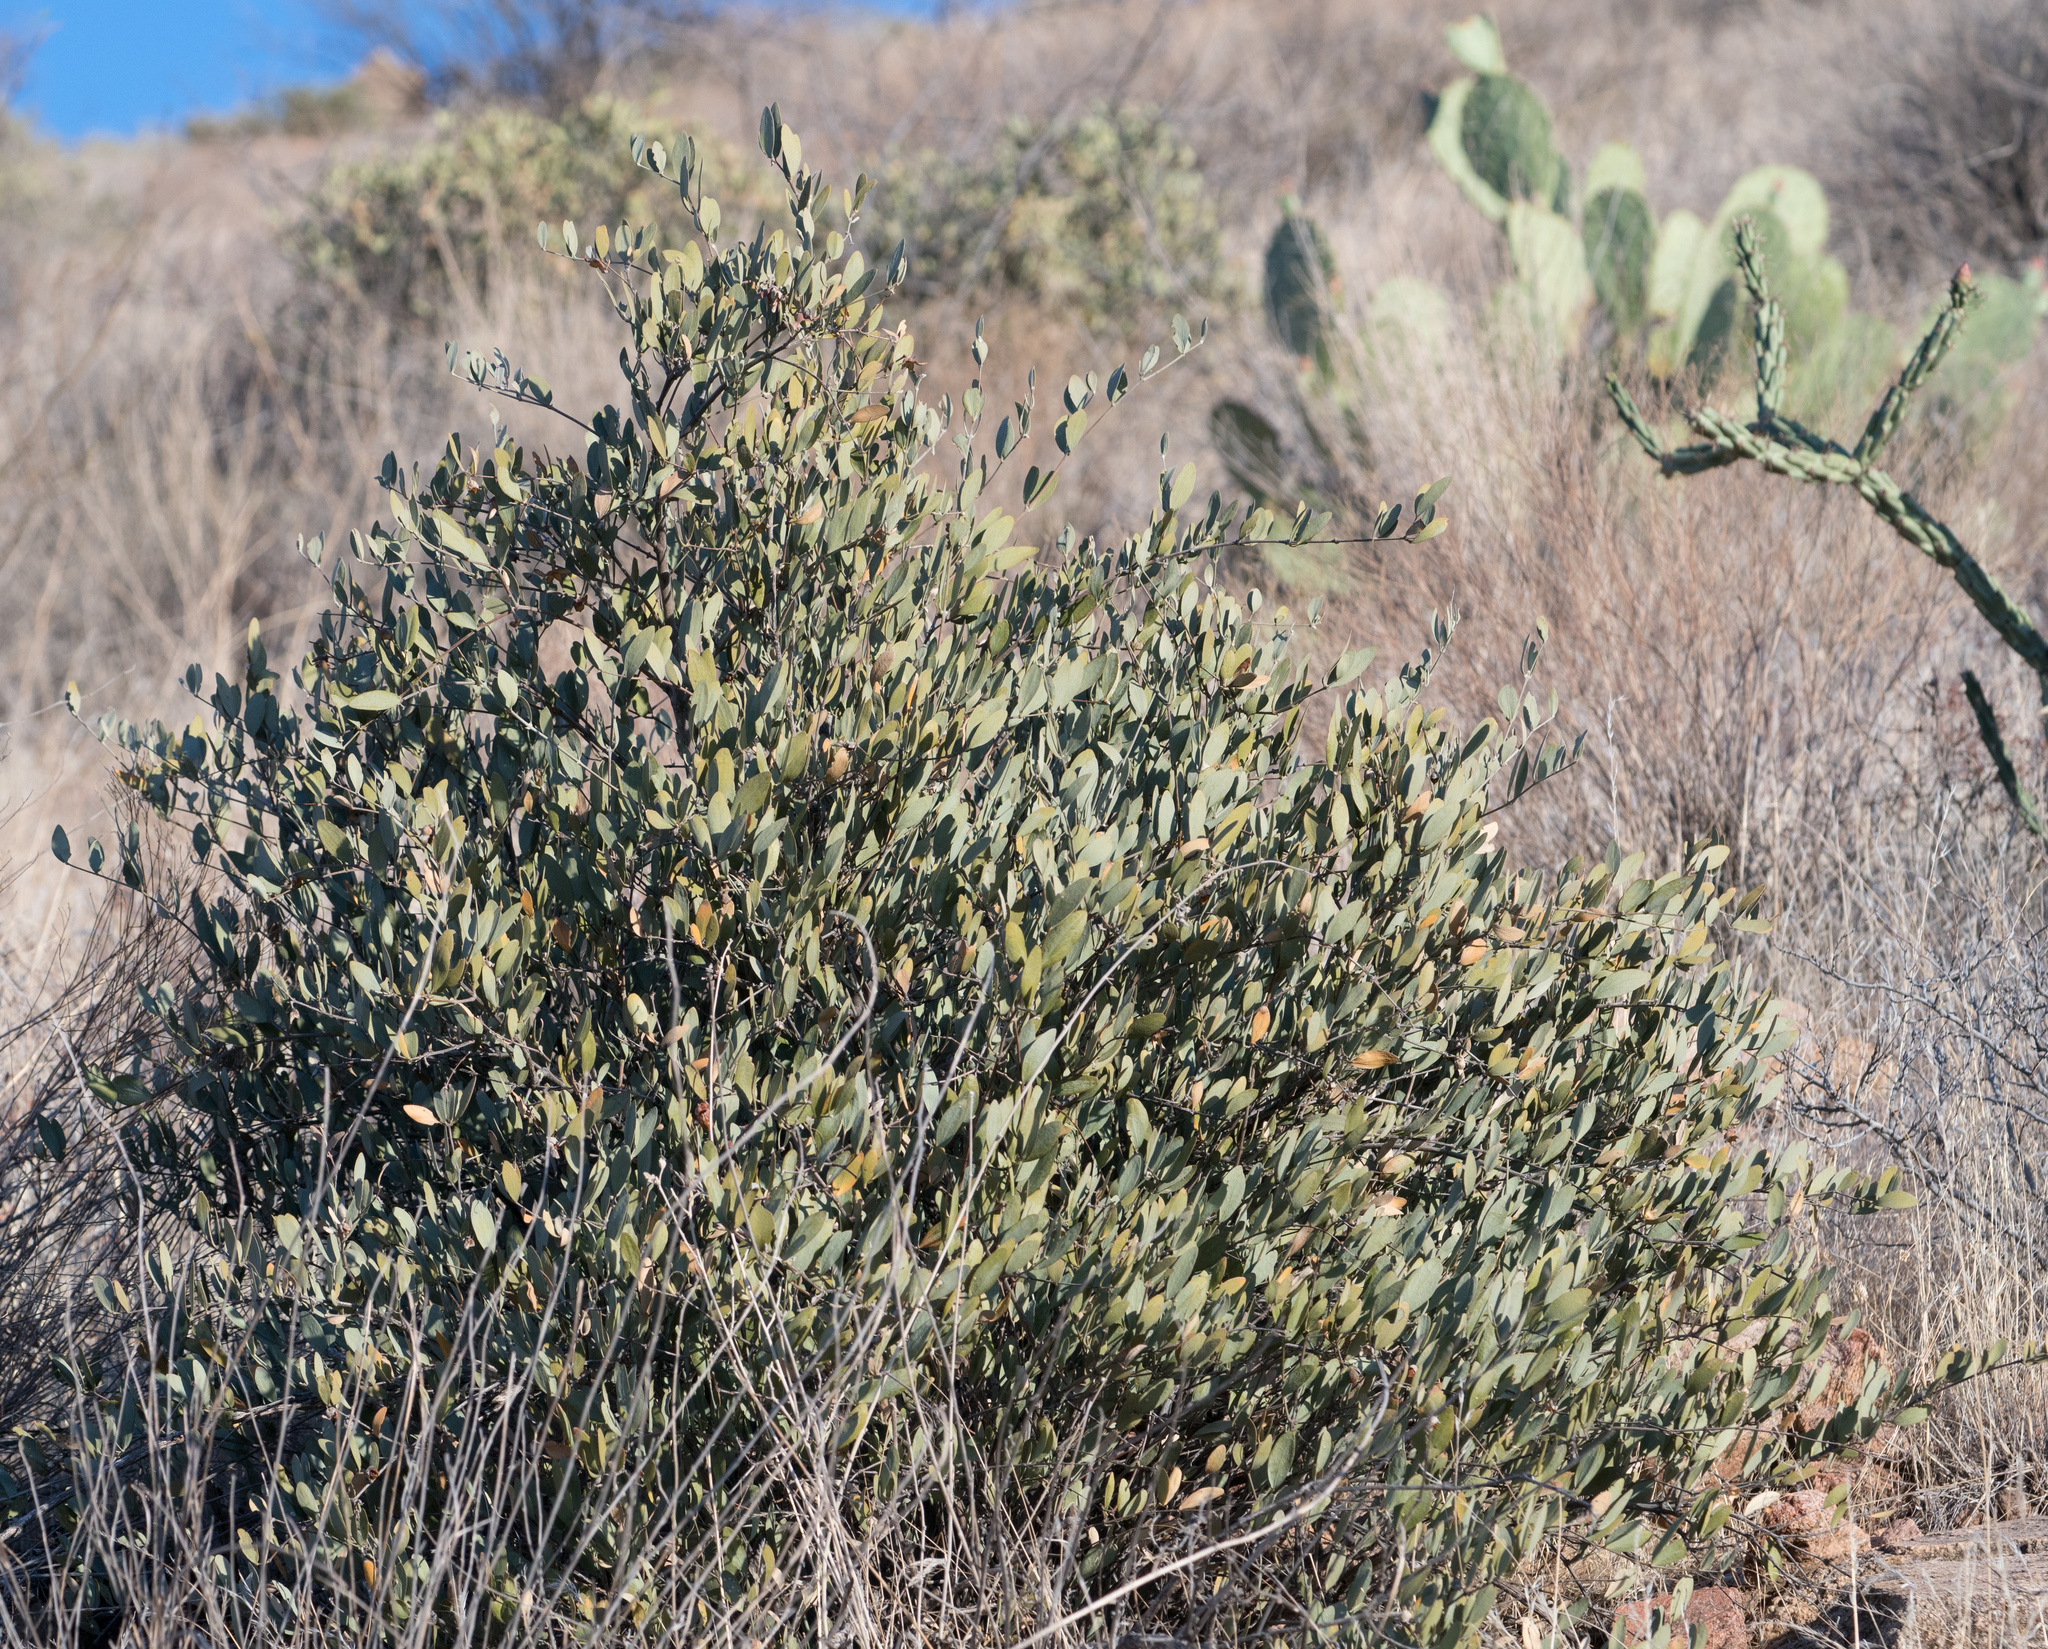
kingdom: Plantae
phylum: Tracheophyta
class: Magnoliopsida
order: Caryophyllales
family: Simmondsiaceae
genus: Simmondsia
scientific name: Simmondsia chinensis
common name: Jojoba
